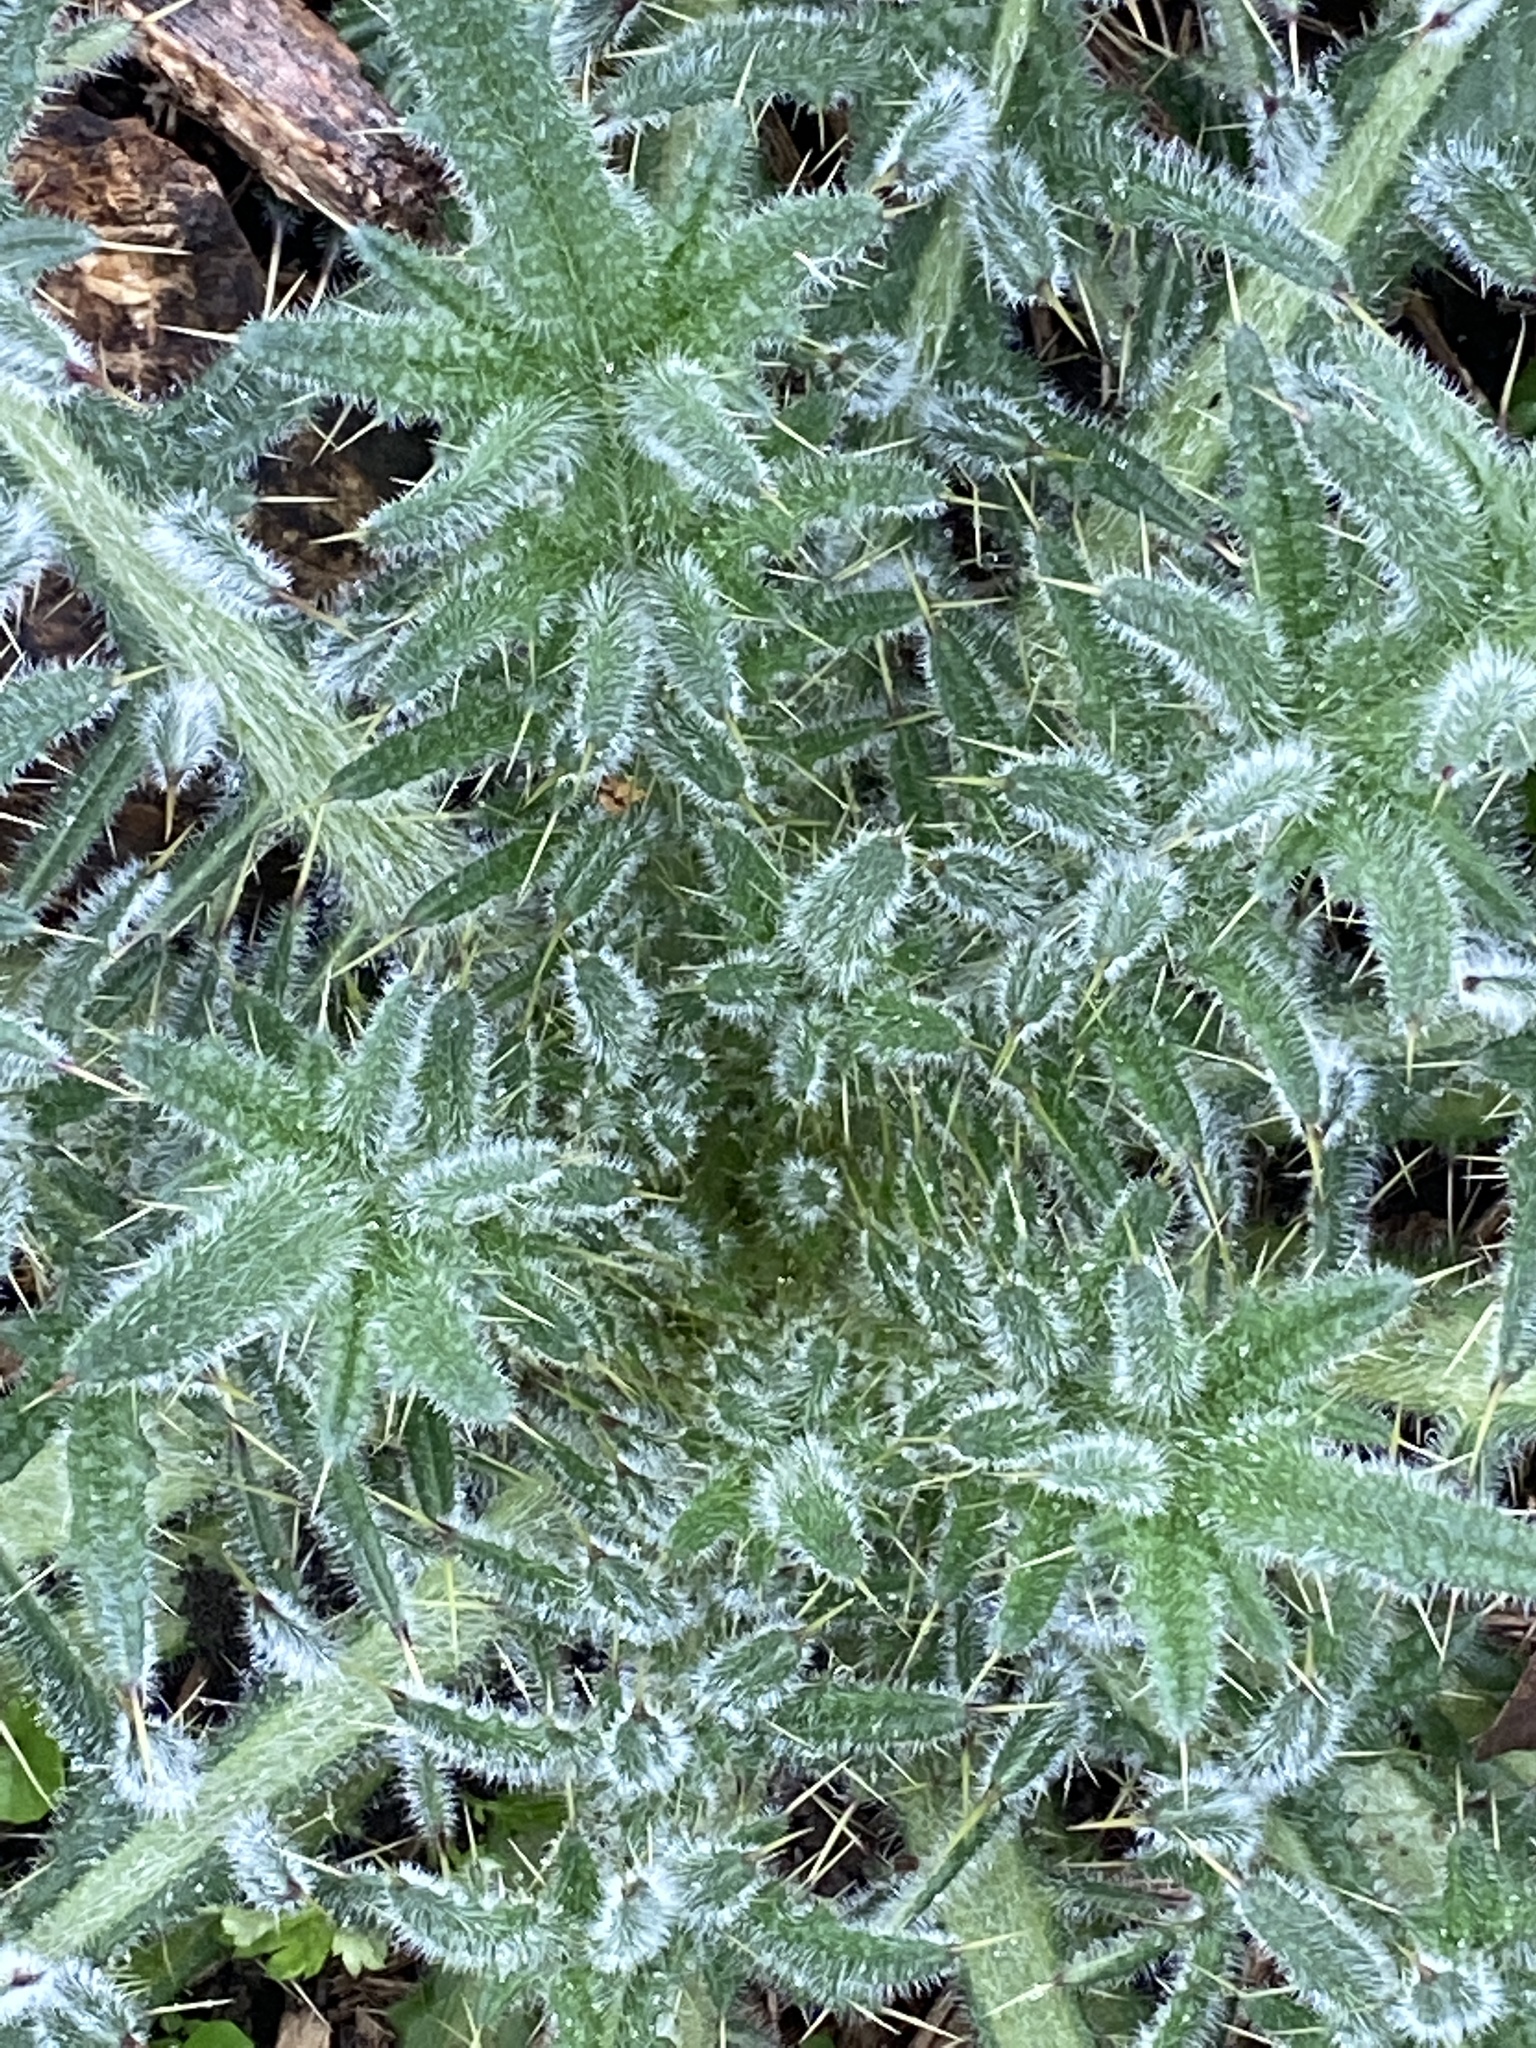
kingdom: Plantae
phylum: Tracheophyta
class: Magnoliopsida
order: Asterales
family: Asteraceae
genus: Cirsium
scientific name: Cirsium vulgare
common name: Bull thistle
